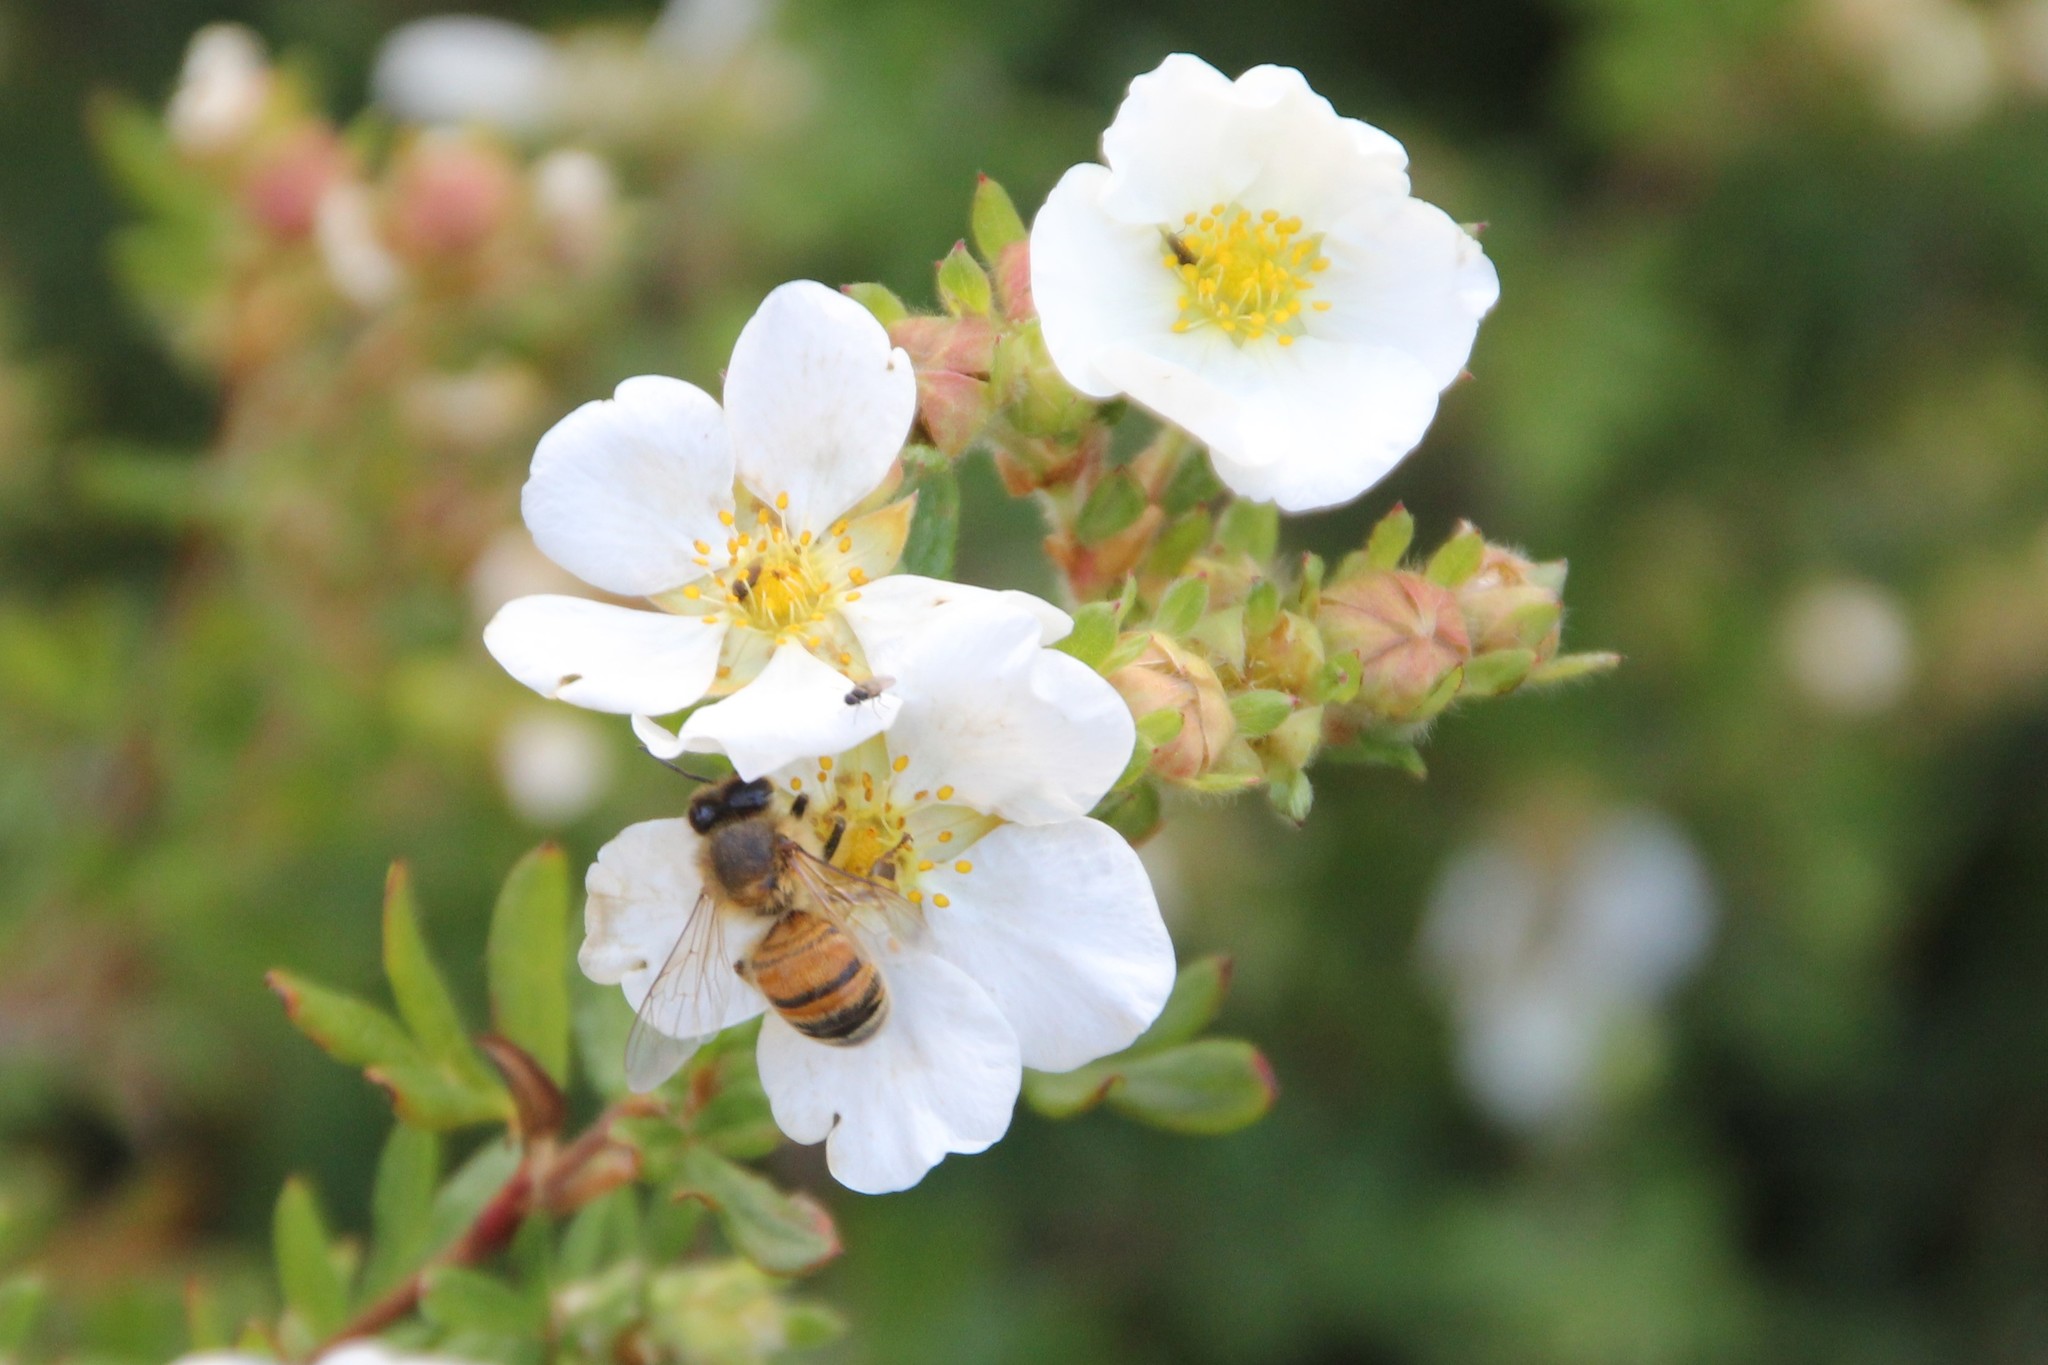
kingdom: Animalia
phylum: Arthropoda
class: Insecta
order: Hymenoptera
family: Apidae
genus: Apis
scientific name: Apis mellifera
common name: Honey bee
